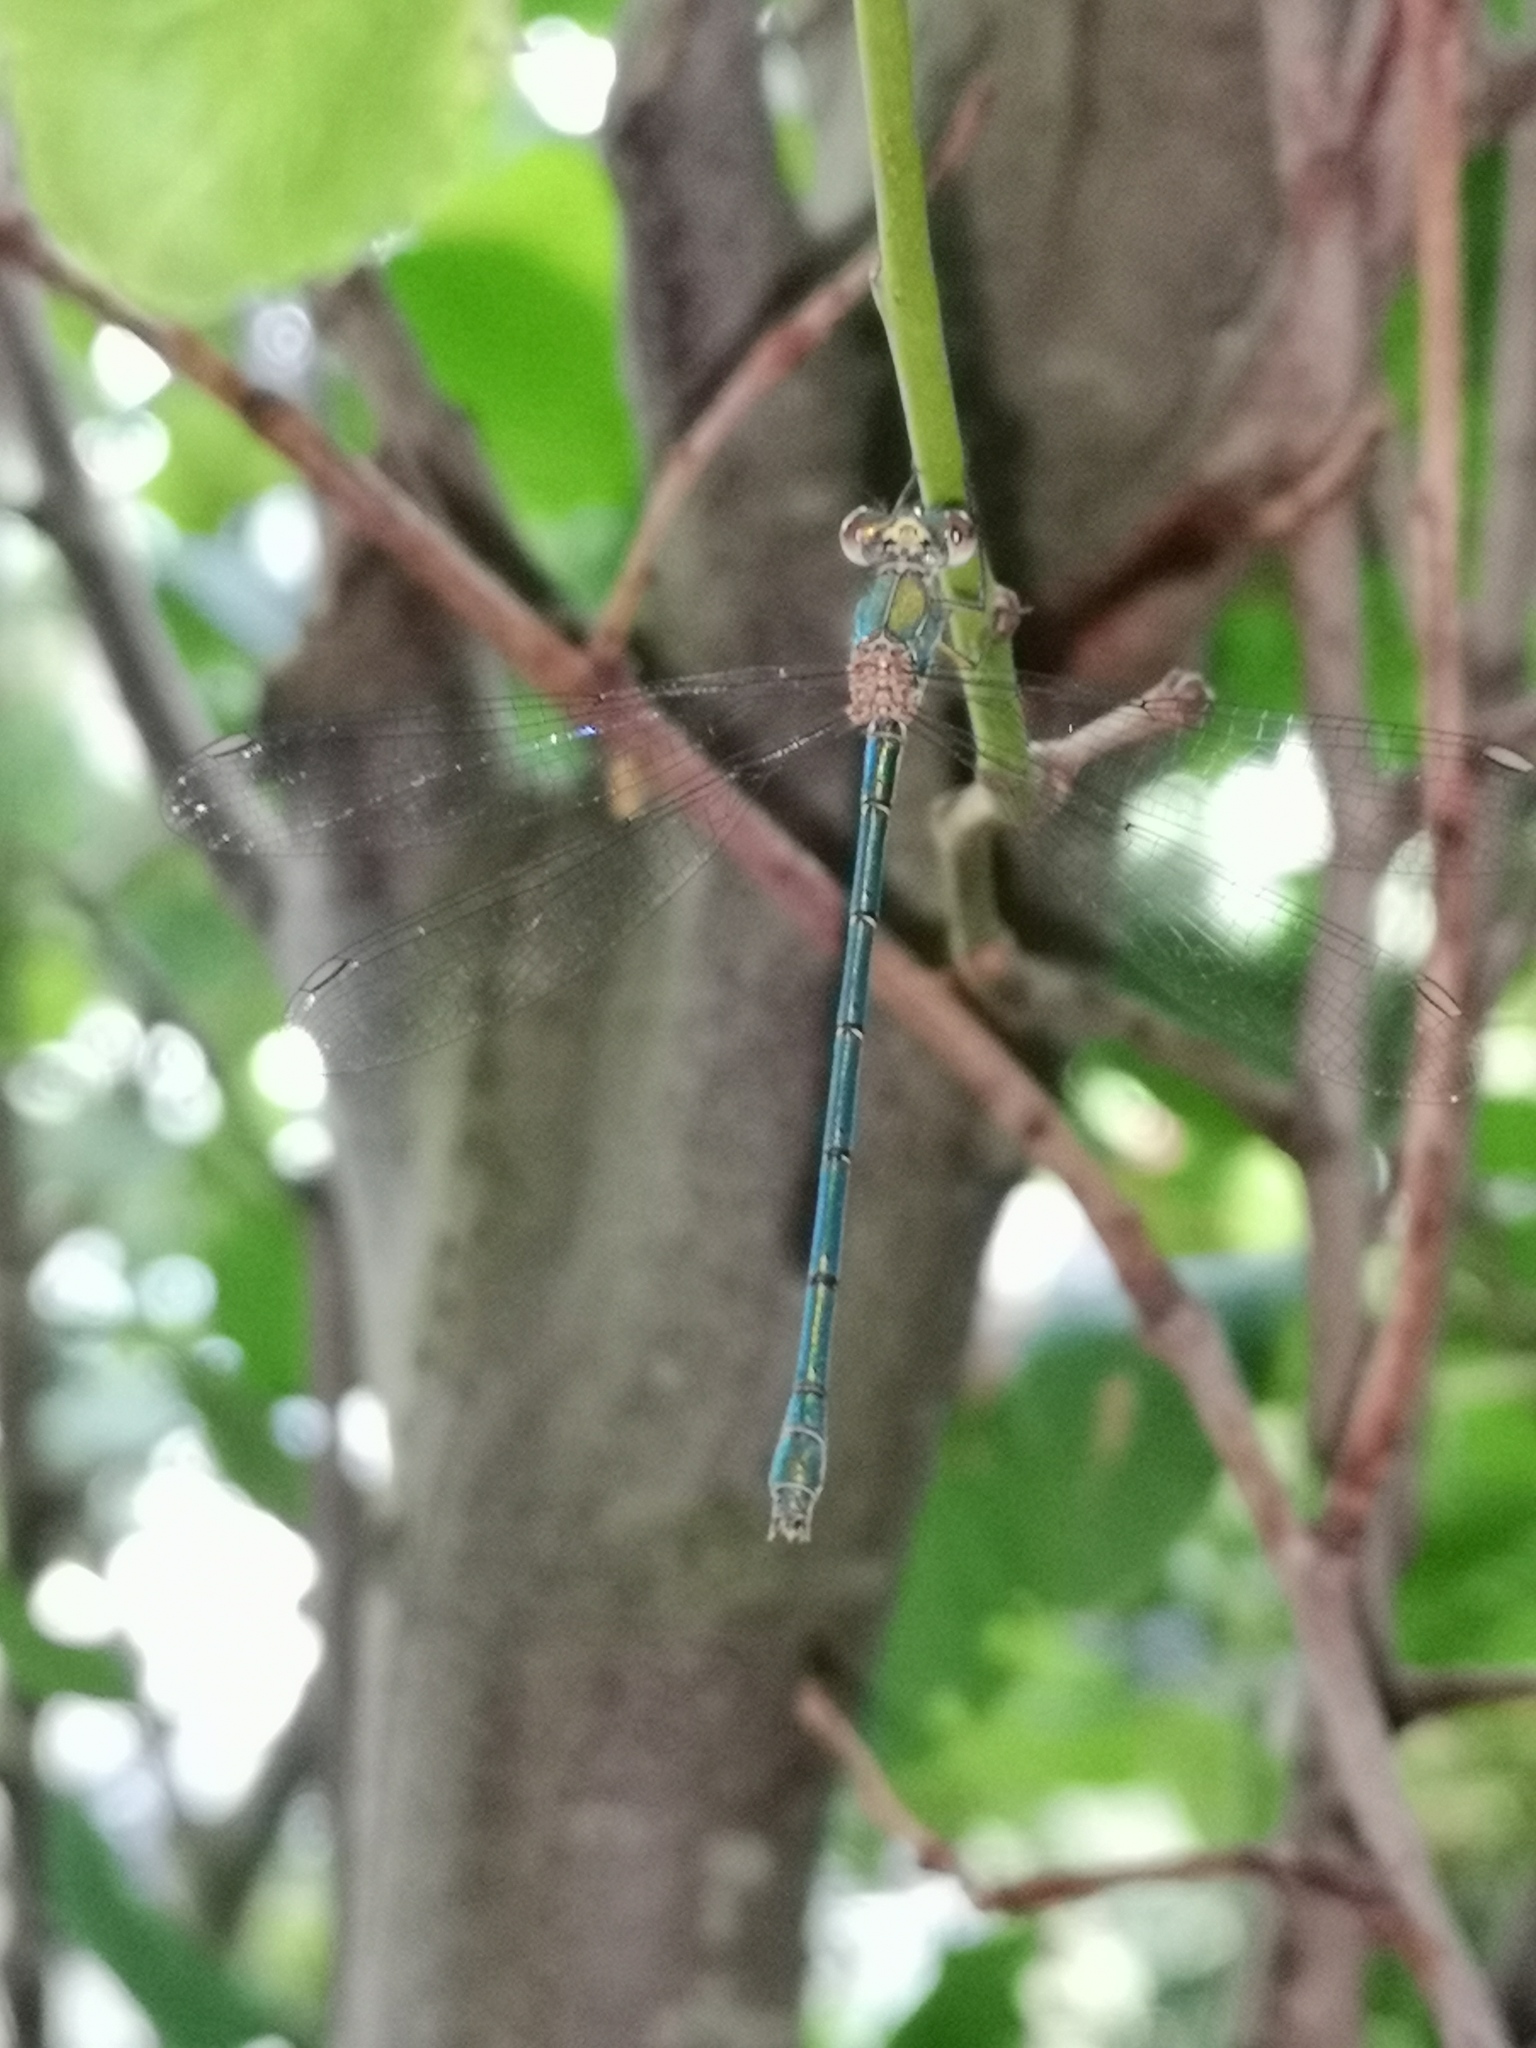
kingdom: Animalia
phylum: Arthropoda
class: Insecta
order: Odonata
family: Lestidae
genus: Chalcolestes
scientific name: Chalcolestes viridis
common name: Green emerald damselfly
